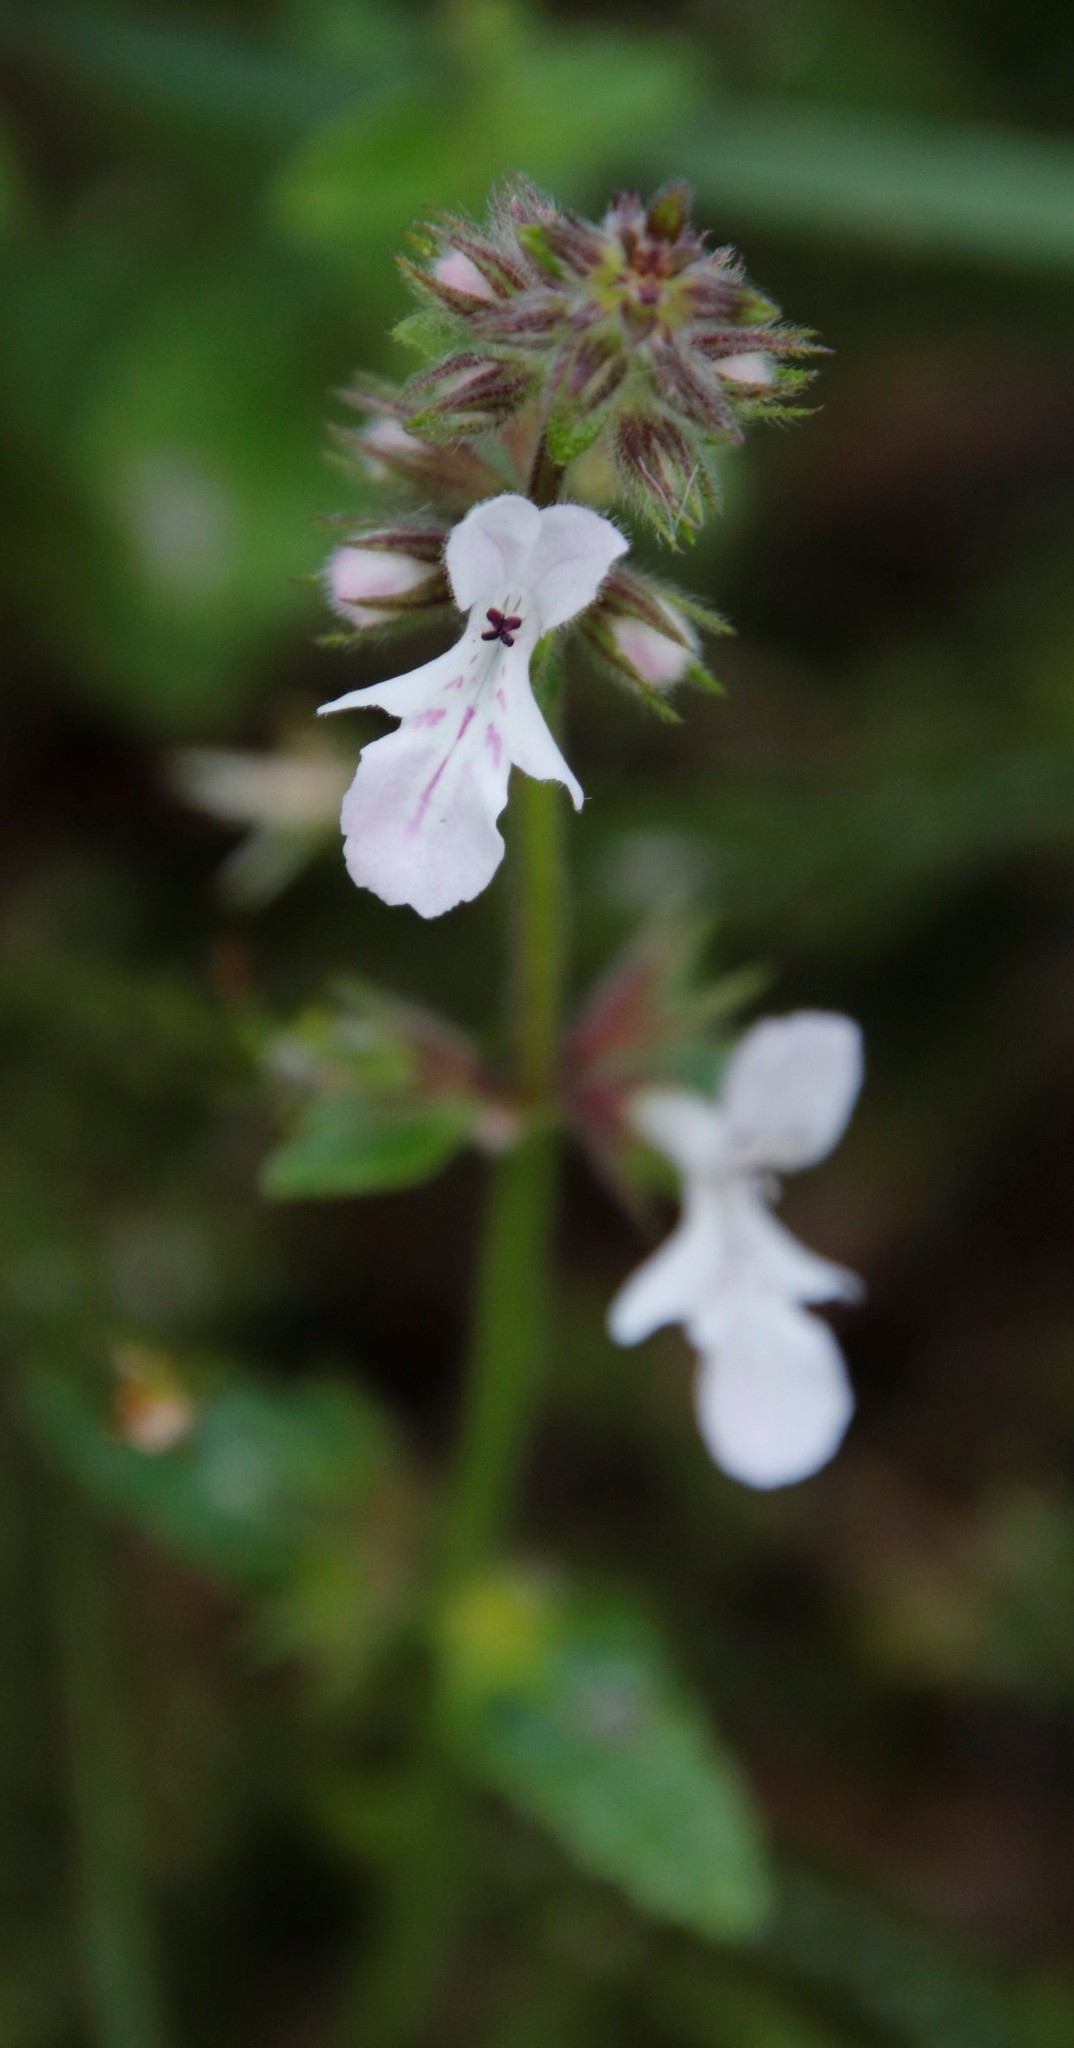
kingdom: Plantae
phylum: Tracheophyta
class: Magnoliopsida
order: Lamiales
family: Lamiaceae
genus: Stachys
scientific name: Stachys aethiopica
